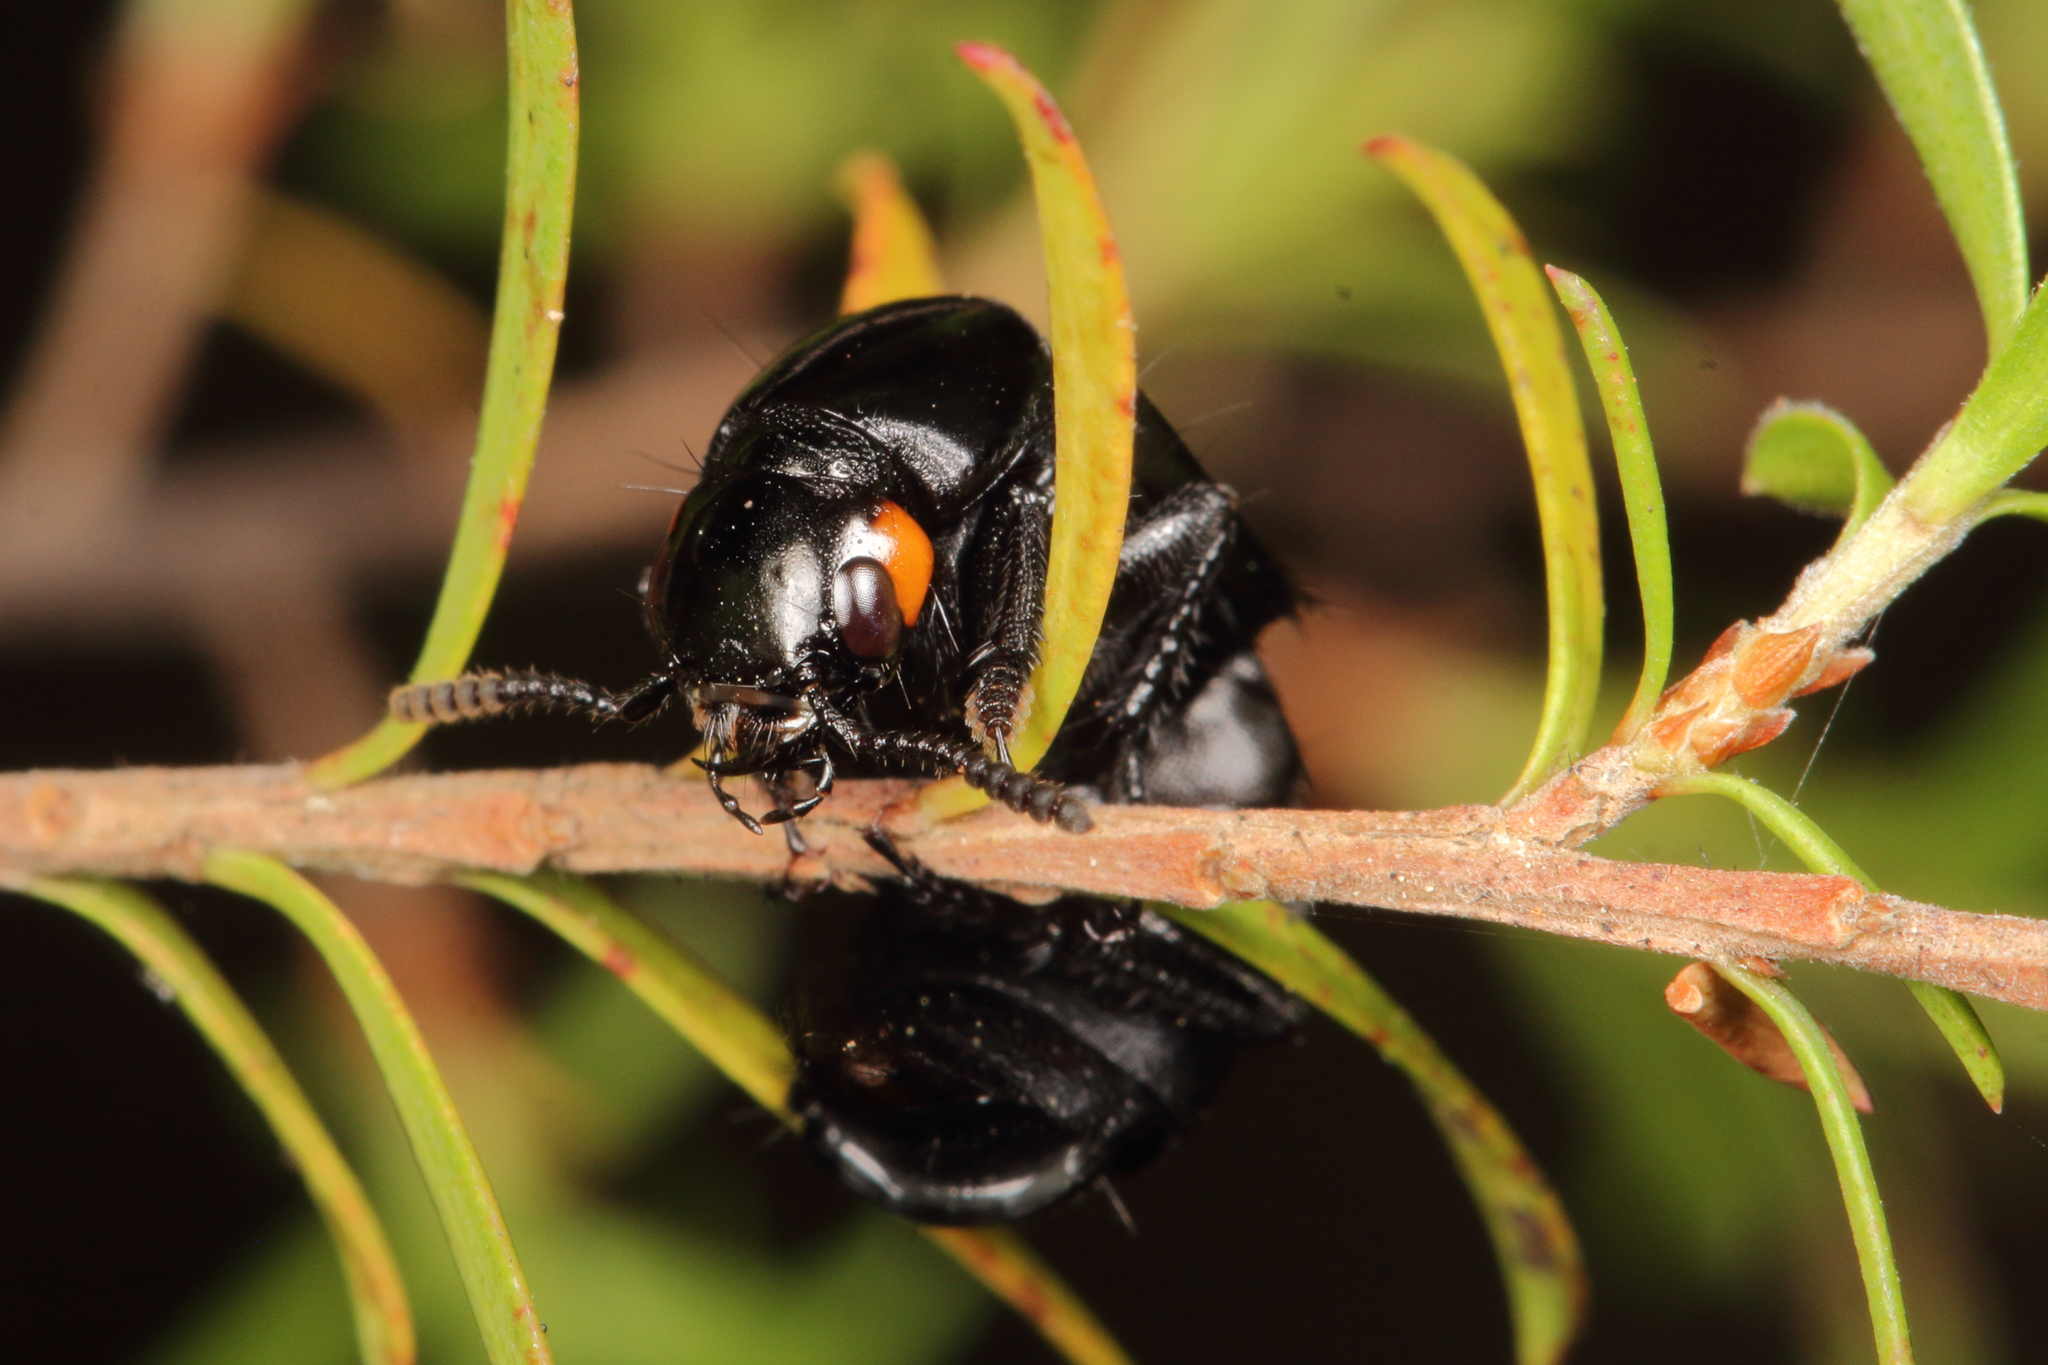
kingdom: Animalia
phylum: Arthropoda
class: Insecta
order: Coleoptera
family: Staphylinidae
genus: Creophilus
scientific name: Creophilus oculatus
